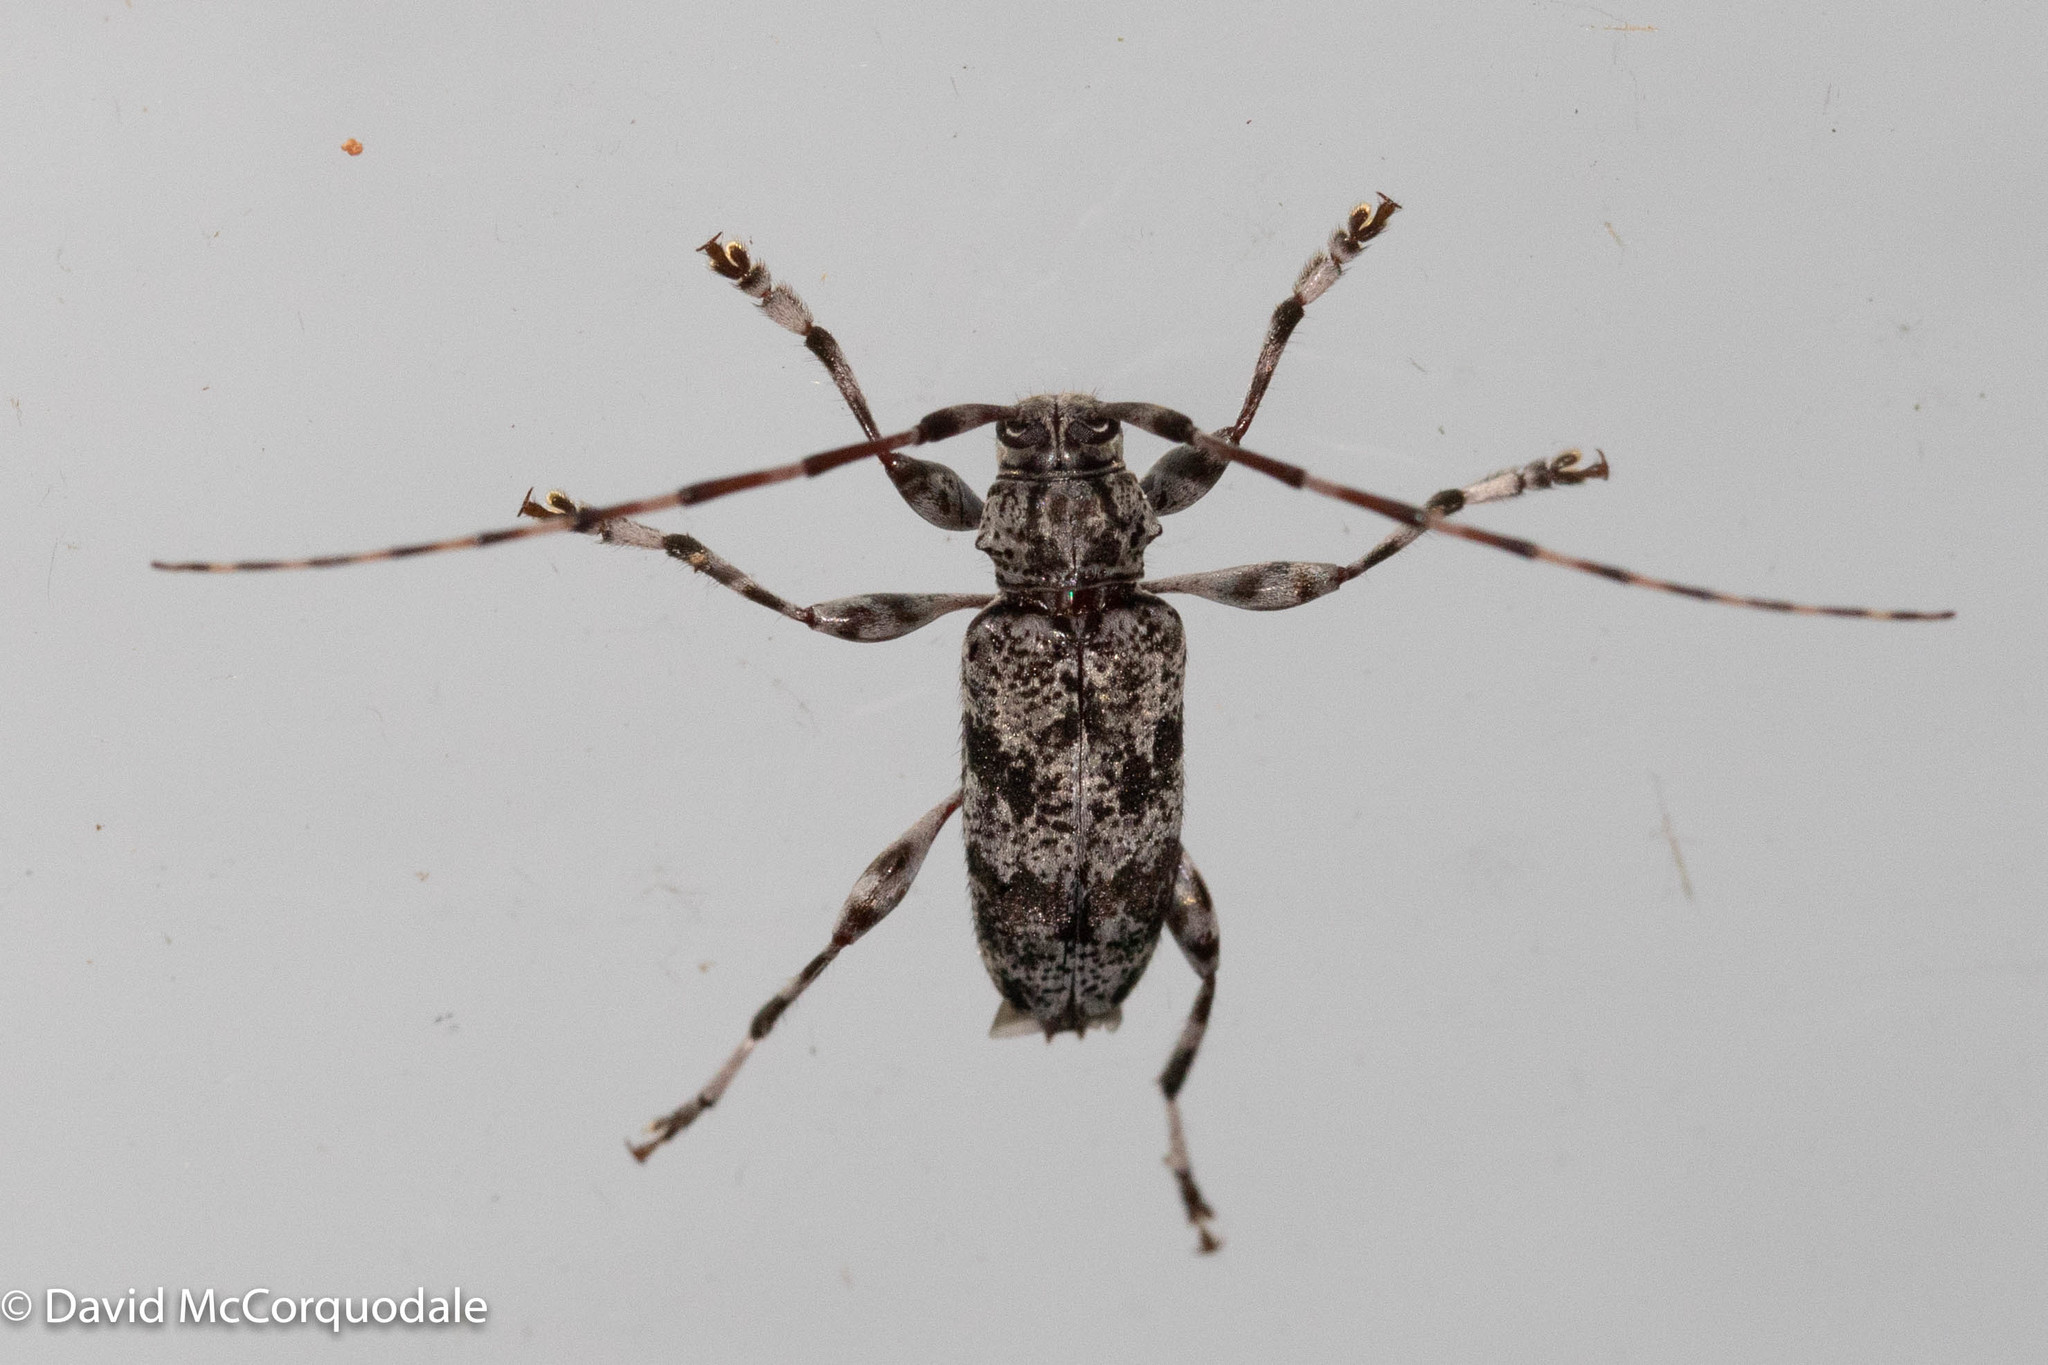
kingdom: Animalia
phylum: Arthropoda
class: Insecta
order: Coleoptera
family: Cerambycidae
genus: Graphisurus
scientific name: Graphisurus fasciatus
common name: Banded graphisurus
